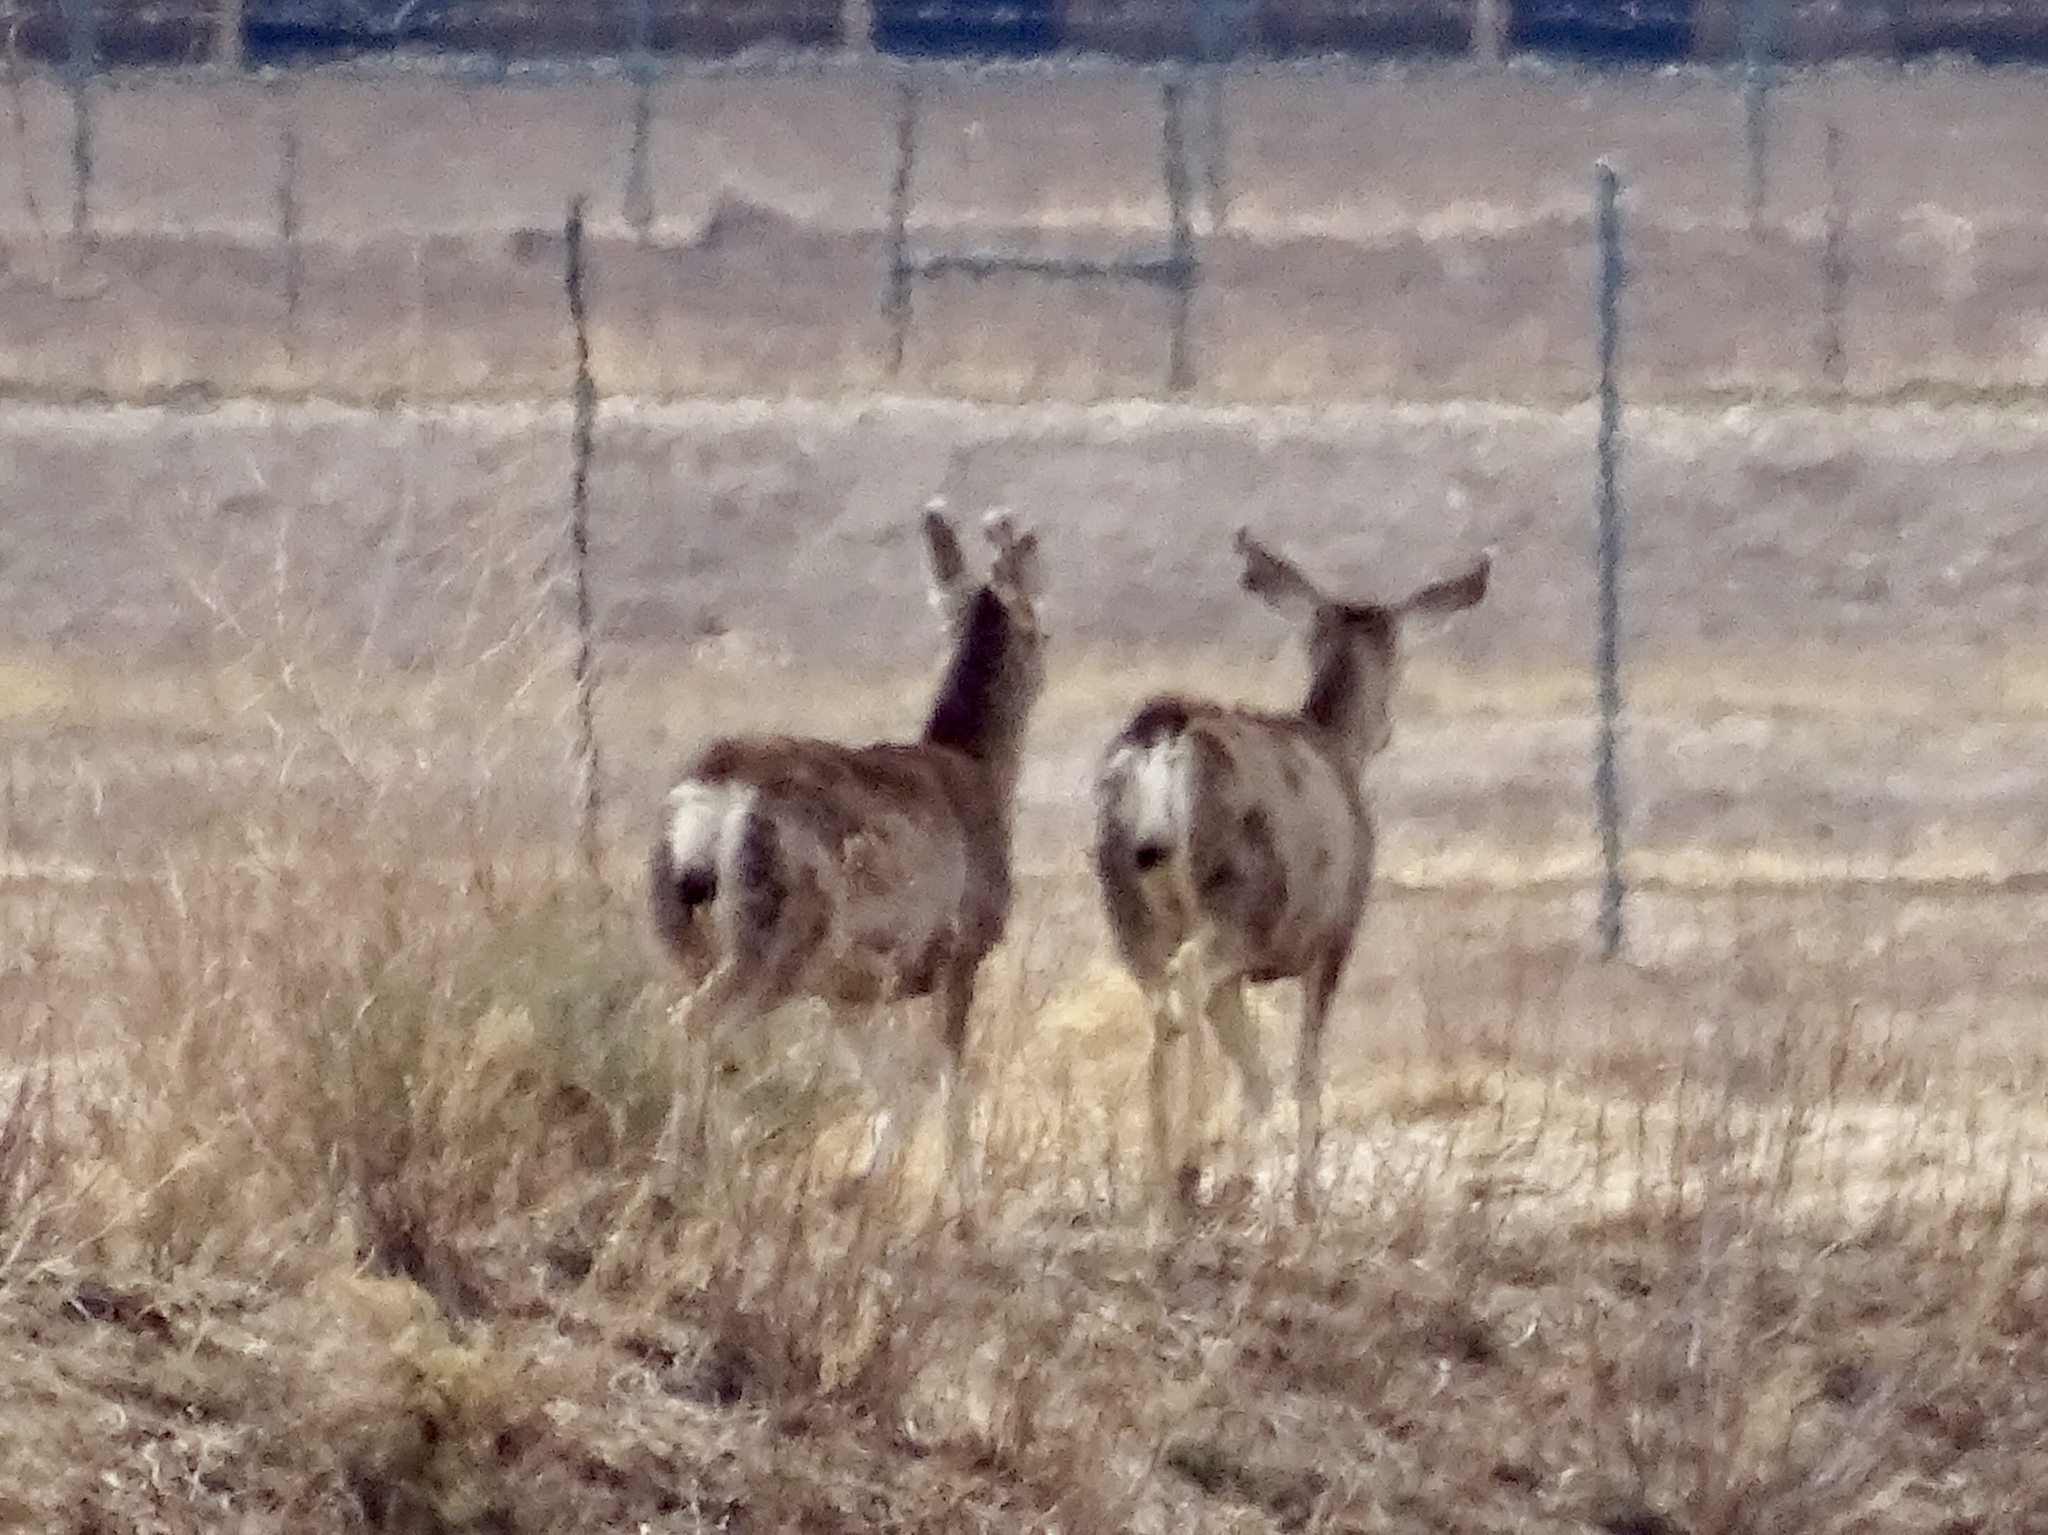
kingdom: Animalia
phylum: Chordata
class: Mammalia
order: Artiodactyla
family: Cervidae
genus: Odocoileus
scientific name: Odocoileus hemionus
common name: Mule deer
